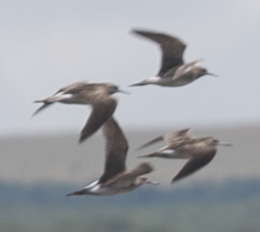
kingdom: Animalia
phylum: Chordata
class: Aves
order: Charadriiformes
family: Scolopacidae
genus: Calidris
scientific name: Calidris pugnax
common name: Ruff
